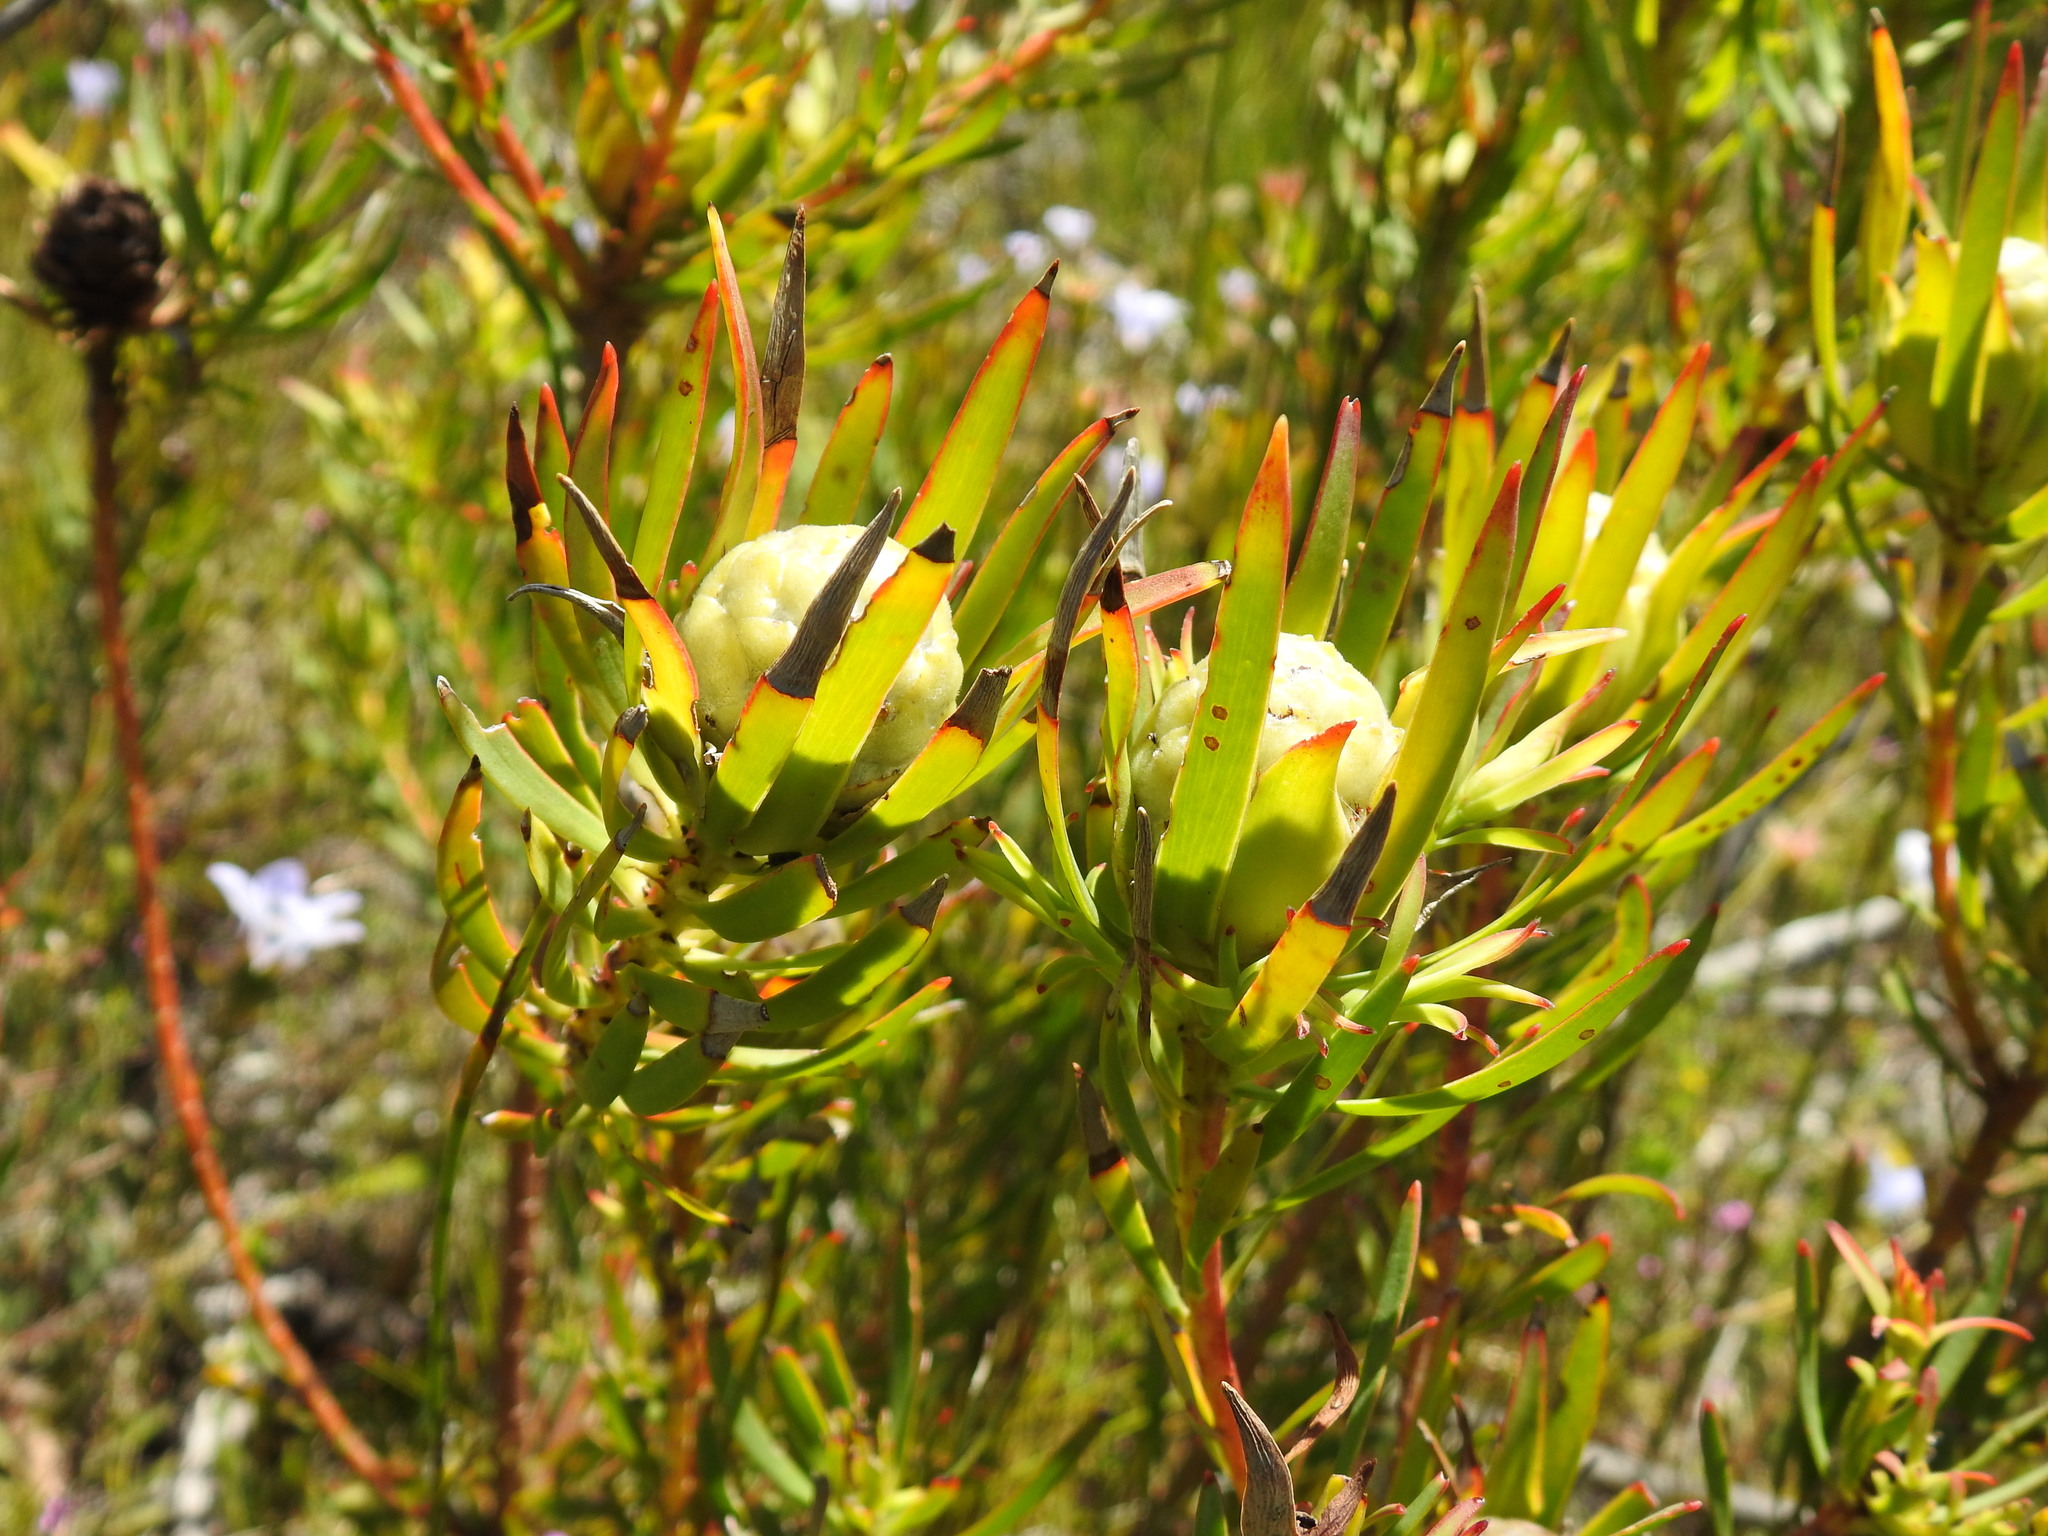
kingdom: Plantae
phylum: Tracheophyta
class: Magnoliopsida
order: Proteales
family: Proteaceae
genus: Leucadendron
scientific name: Leucadendron salignum
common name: Common sunshine conebush
